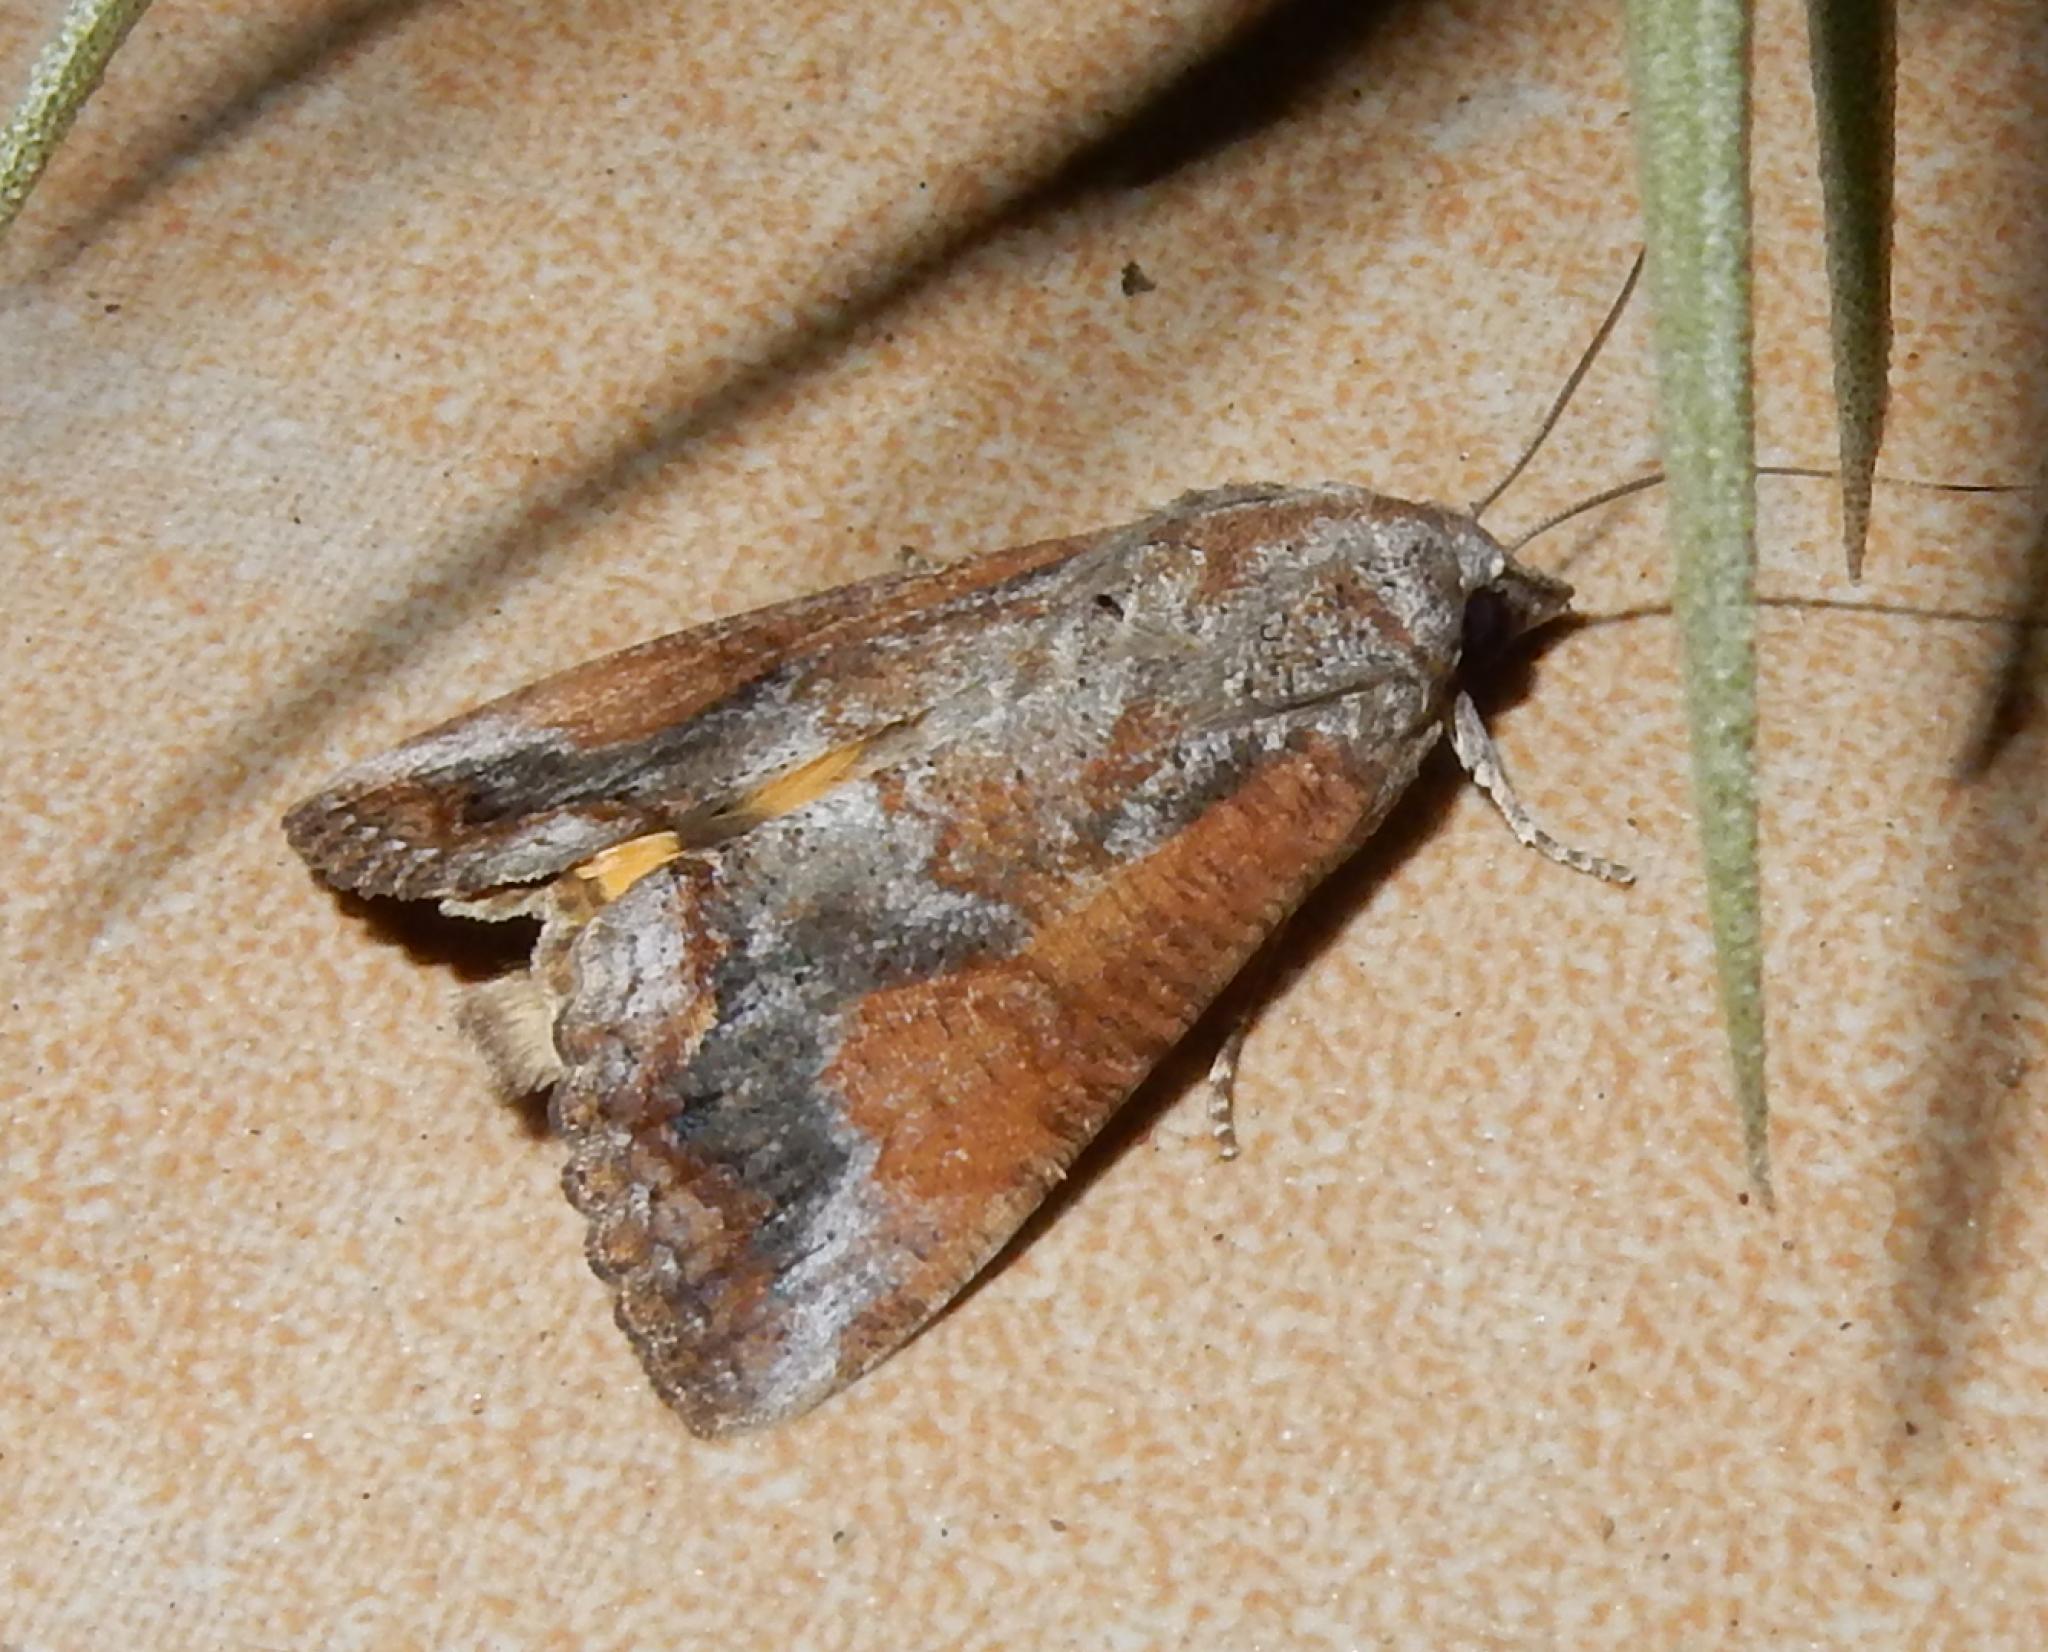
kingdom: Animalia
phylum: Arthropoda
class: Insecta
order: Lepidoptera
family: Erebidae
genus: Hypocala
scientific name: Hypocala rostrata
